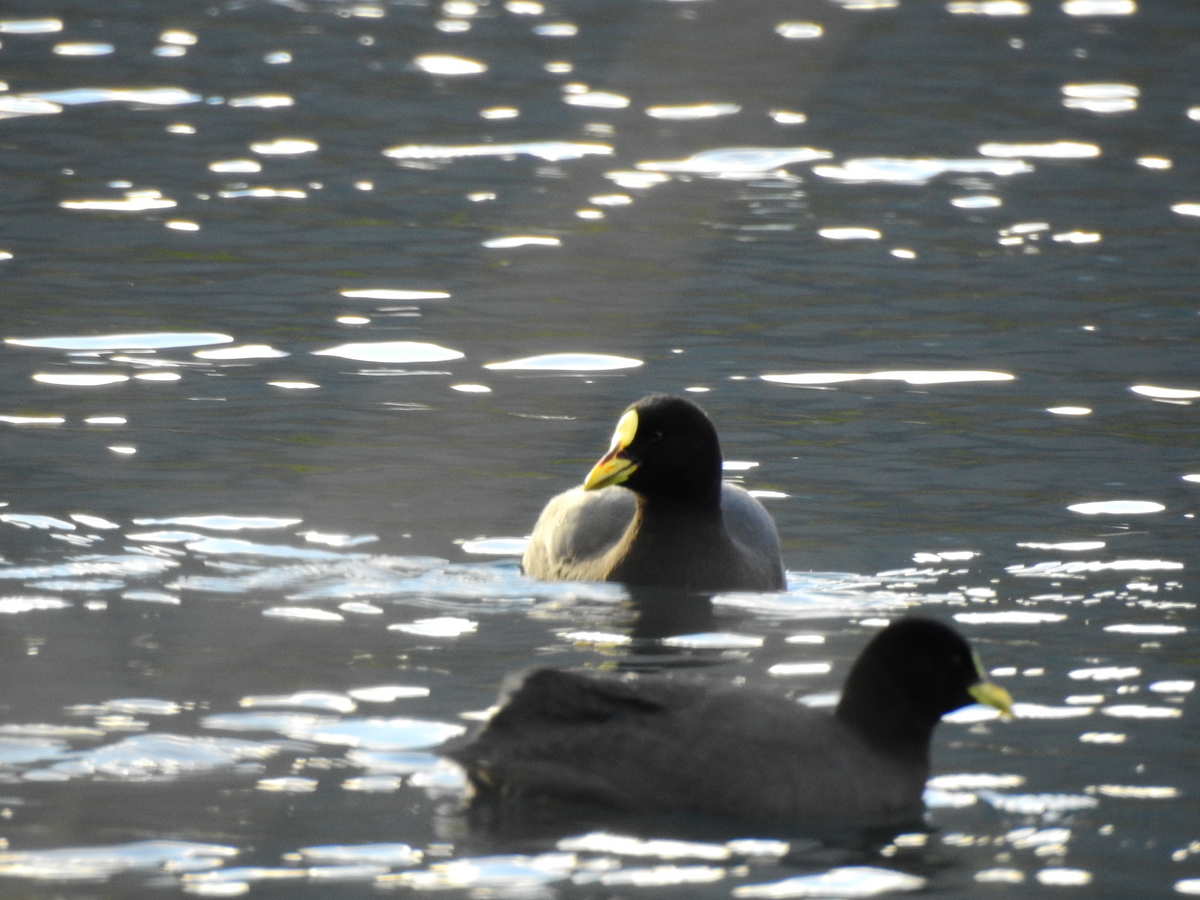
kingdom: Animalia
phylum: Chordata
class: Aves
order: Gruiformes
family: Rallidae
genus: Fulica
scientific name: Fulica armillata
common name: Red-gartered coot
